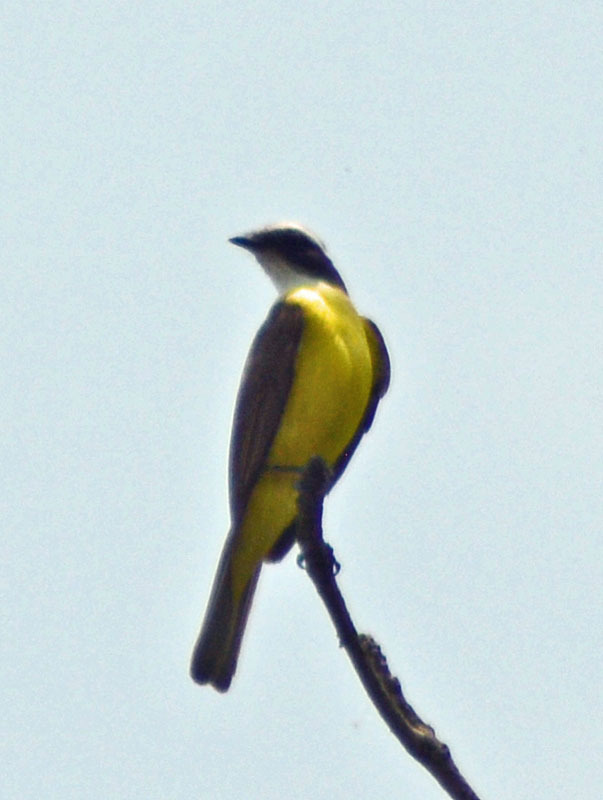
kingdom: Animalia
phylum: Chordata
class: Aves
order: Passeriformes
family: Tyrannidae
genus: Myiozetetes
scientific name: Myiozetetes similis
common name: Social flycatcher
